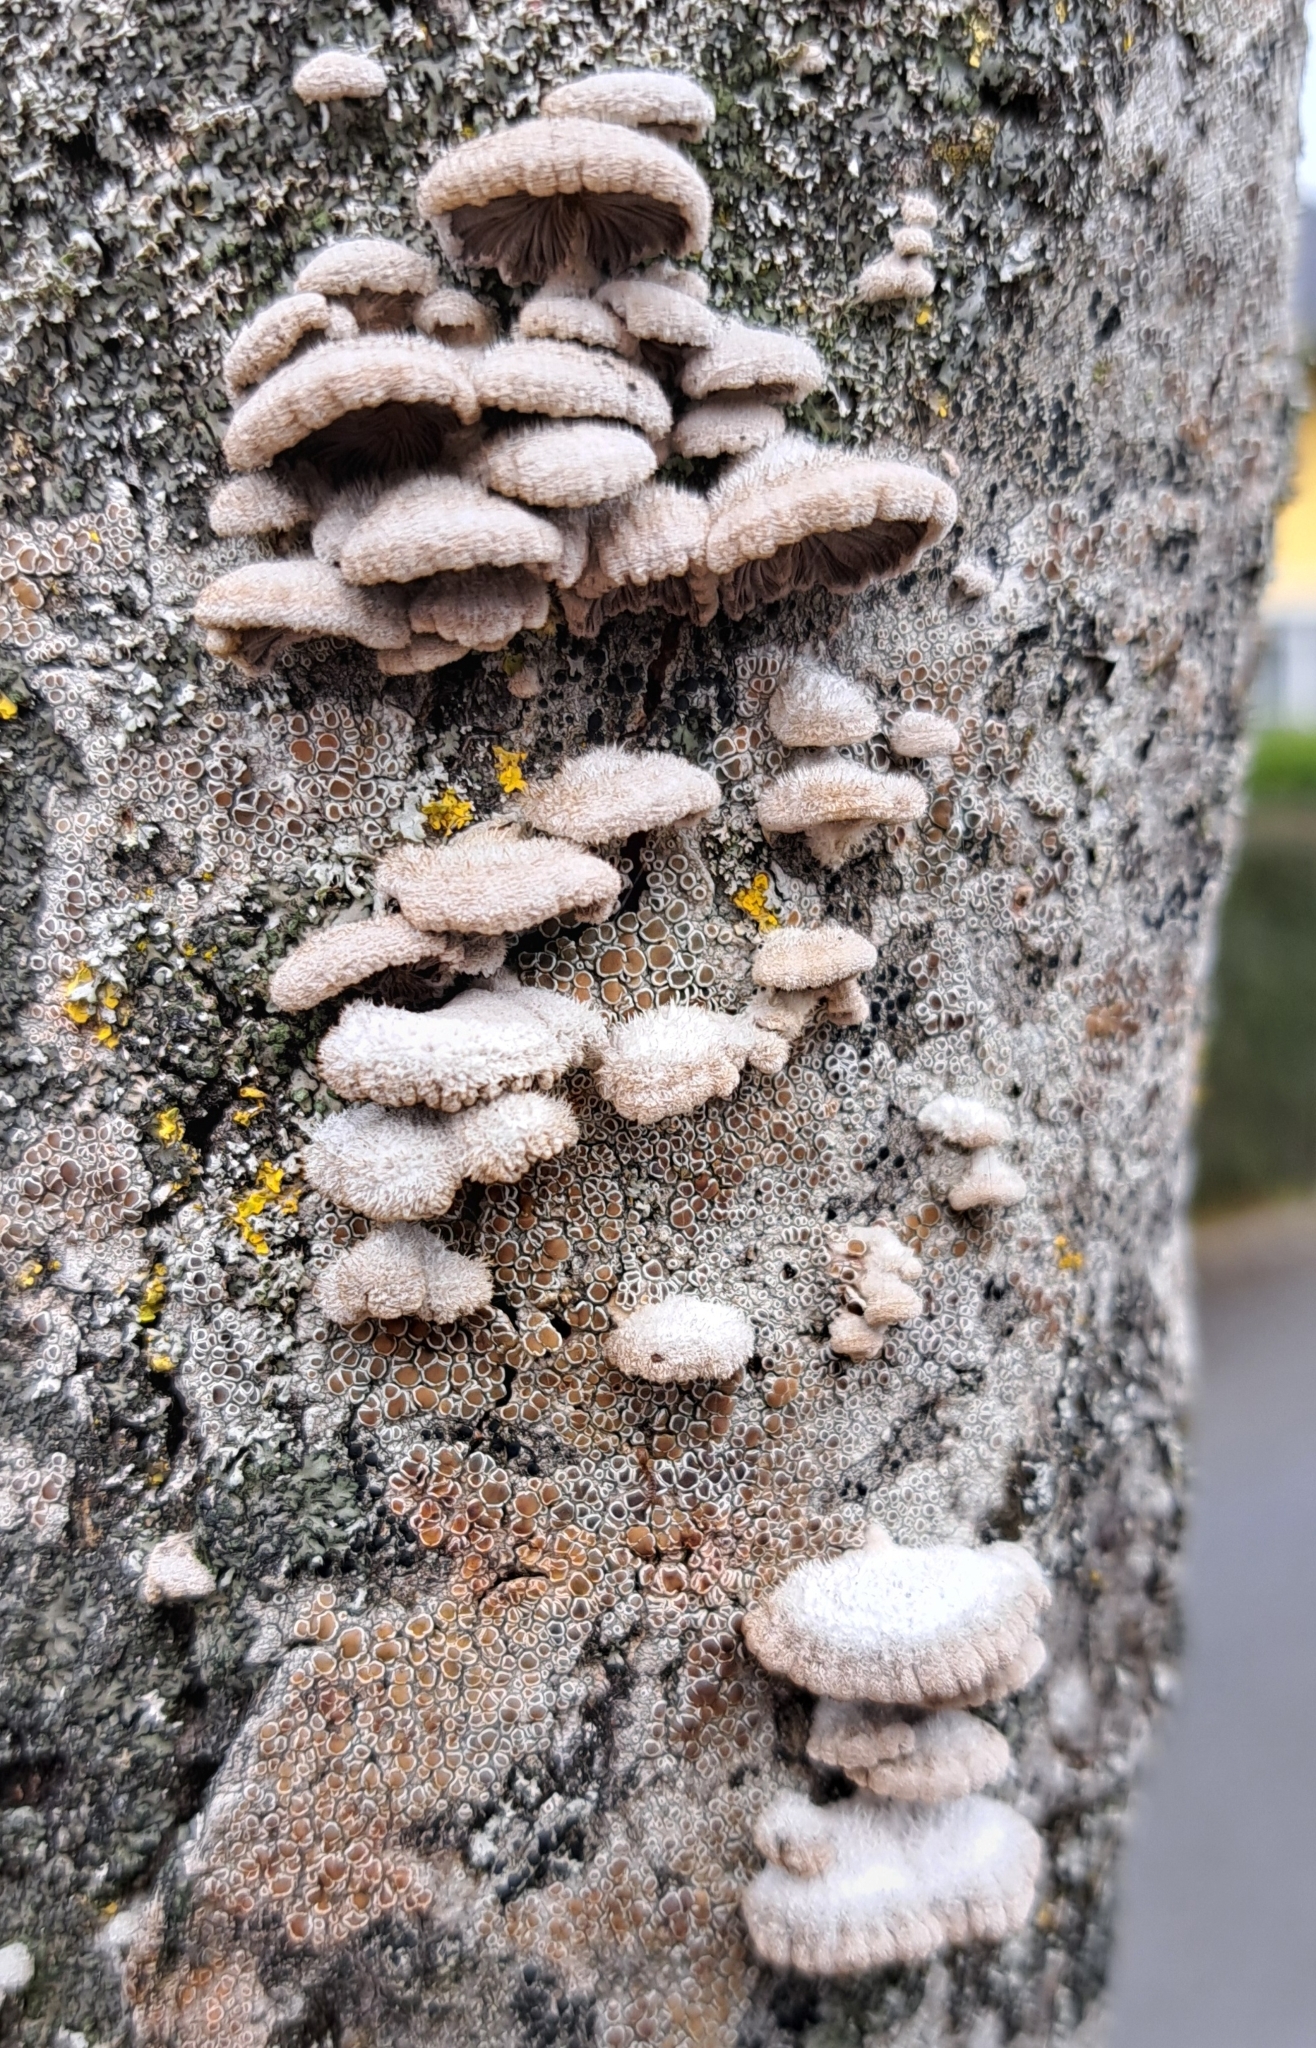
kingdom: Fungi
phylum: Basidiomycota
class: Agaricomycetes
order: Agaricales
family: Schizophyllaceae
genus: Schizophyllum
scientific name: Schizophyllum commune
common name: Common porecrust
